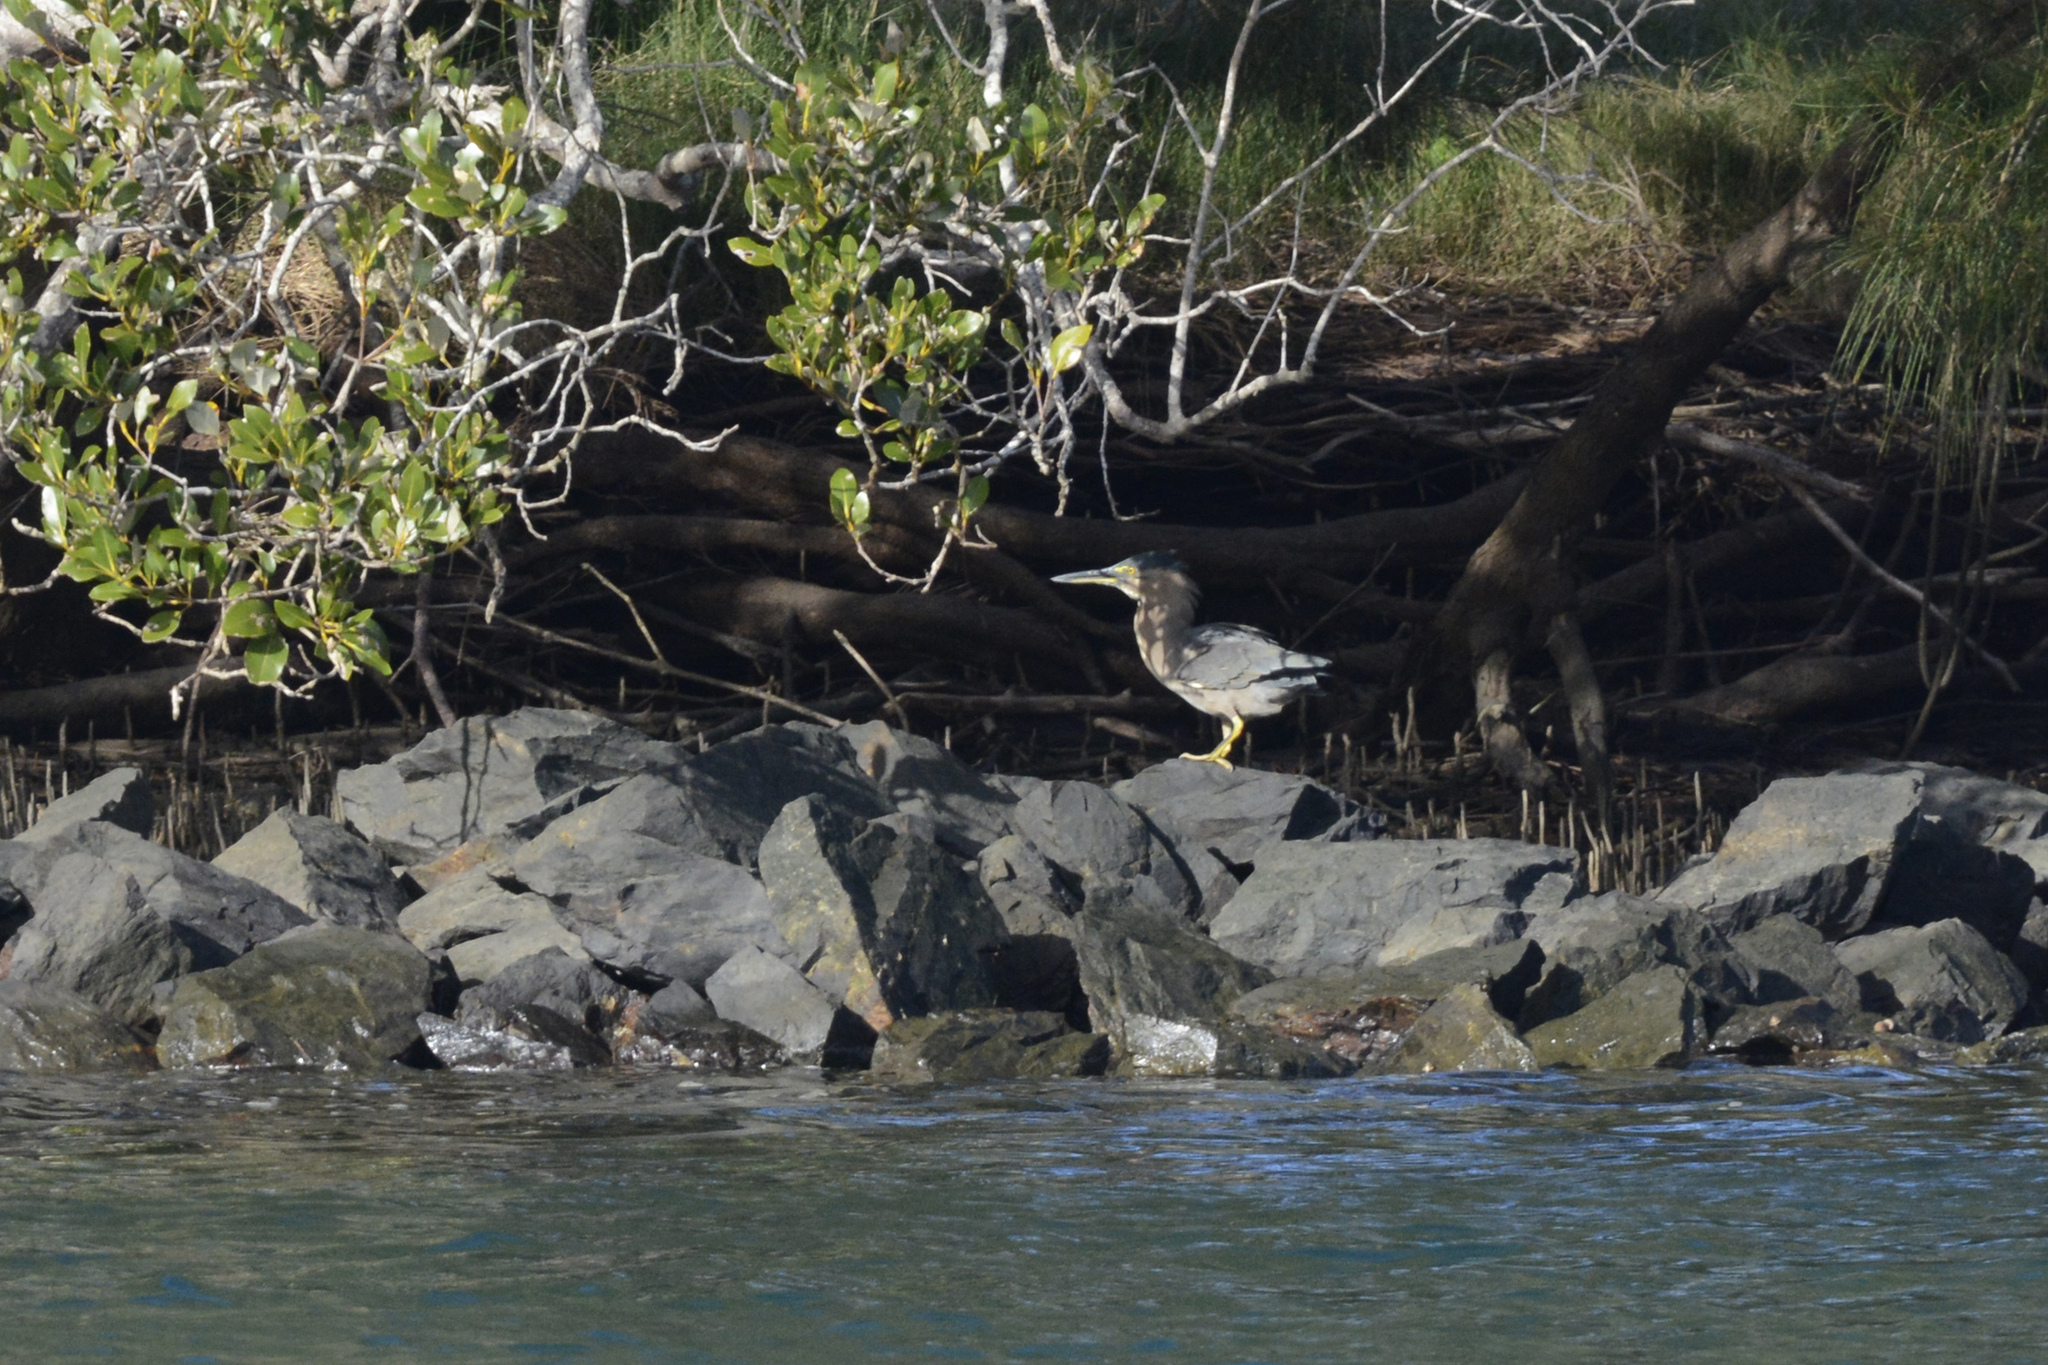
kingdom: Animalia
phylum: Chordata
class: Aves
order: Pelecaniformes
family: Ardeidae
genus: Butorides
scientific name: Butorides striata
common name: Striated heron
